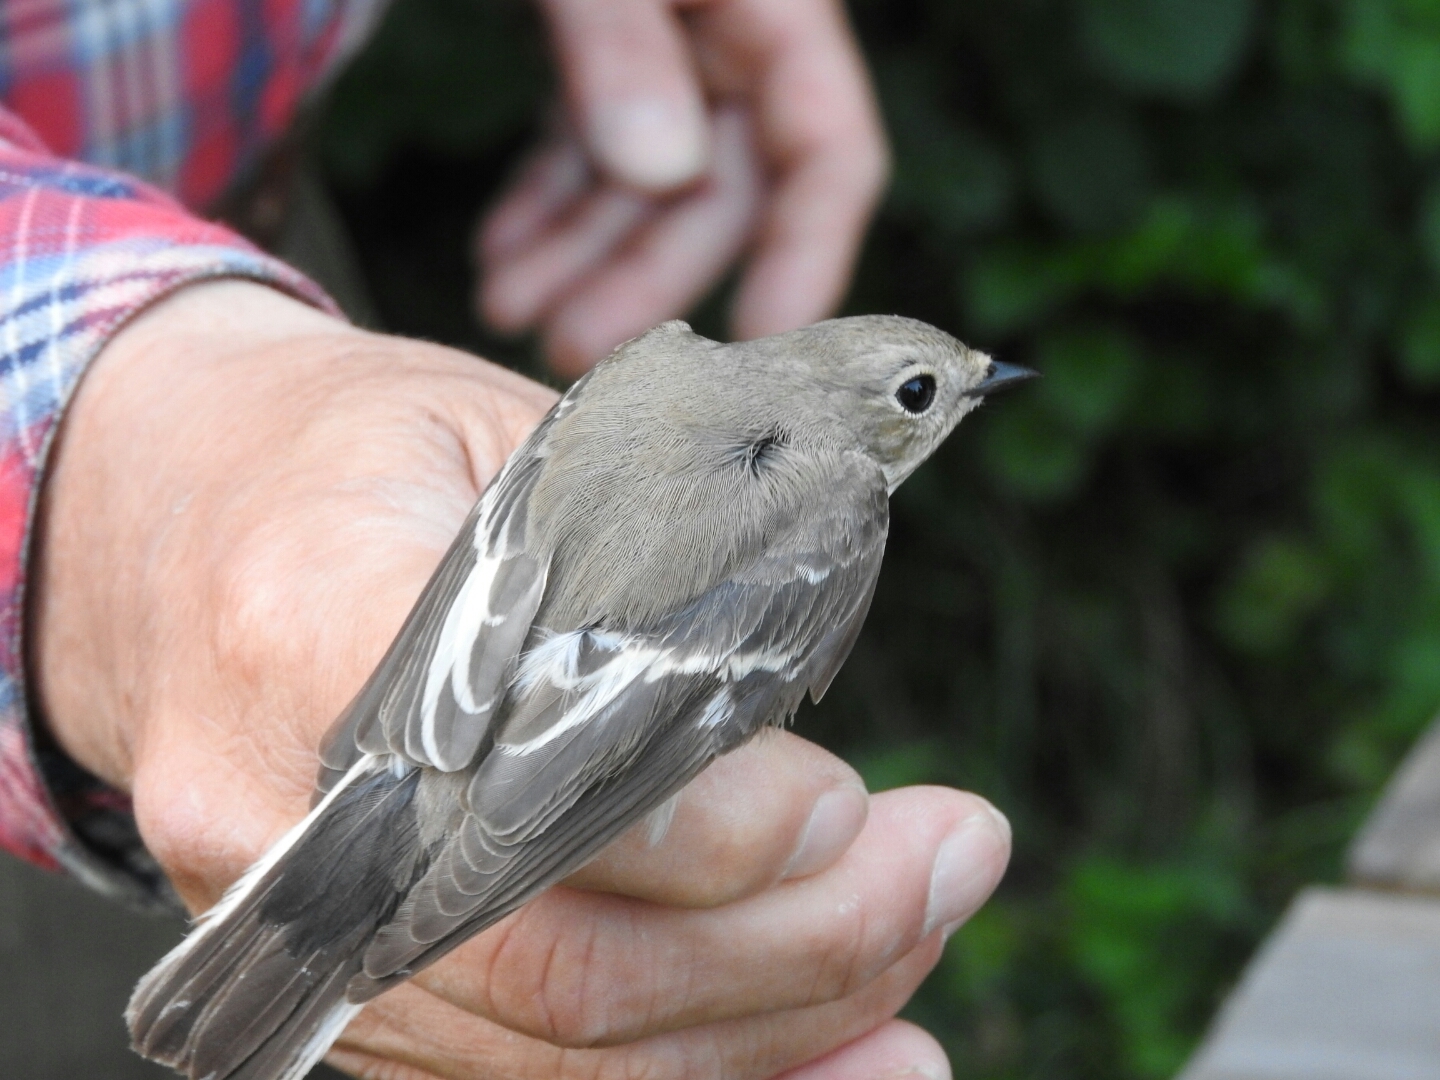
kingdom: Animalia
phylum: Chordata
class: Aves
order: Passeriformes
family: Muscicapidae
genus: Ficedula
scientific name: Ficedula hypoleuca
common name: European pied flycatcher
